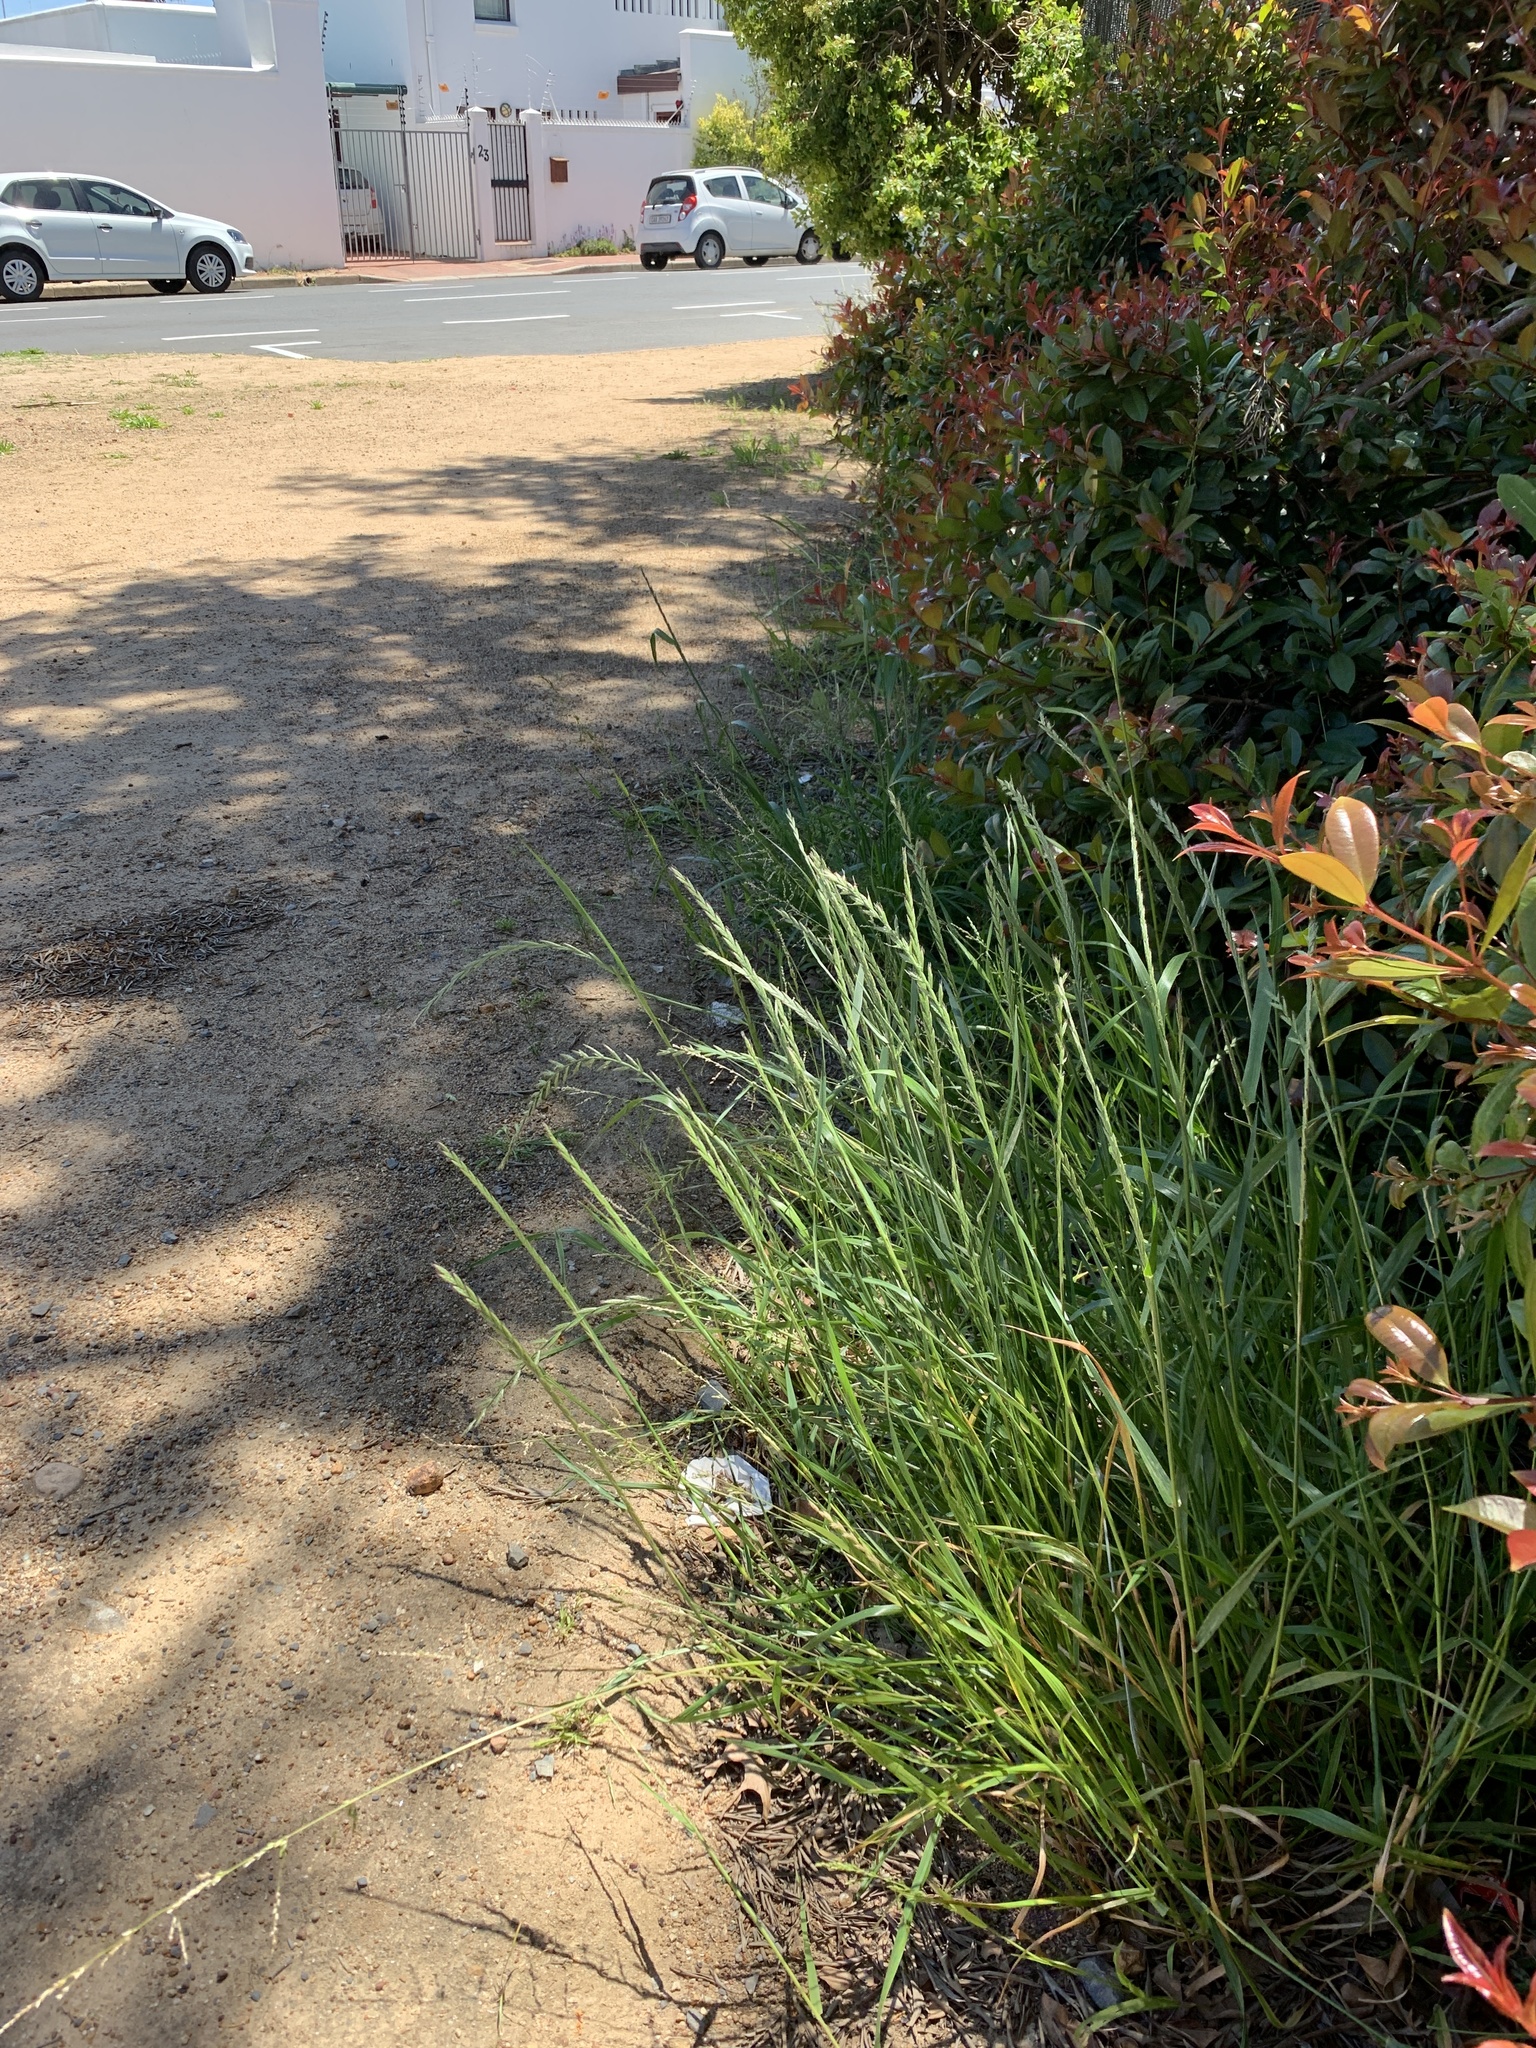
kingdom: Plantae
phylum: Tracheophyta
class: Liliopsida
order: Poales
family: Poaceae
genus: Lolium
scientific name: Lolium multiflorum
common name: Annual ryegrass
